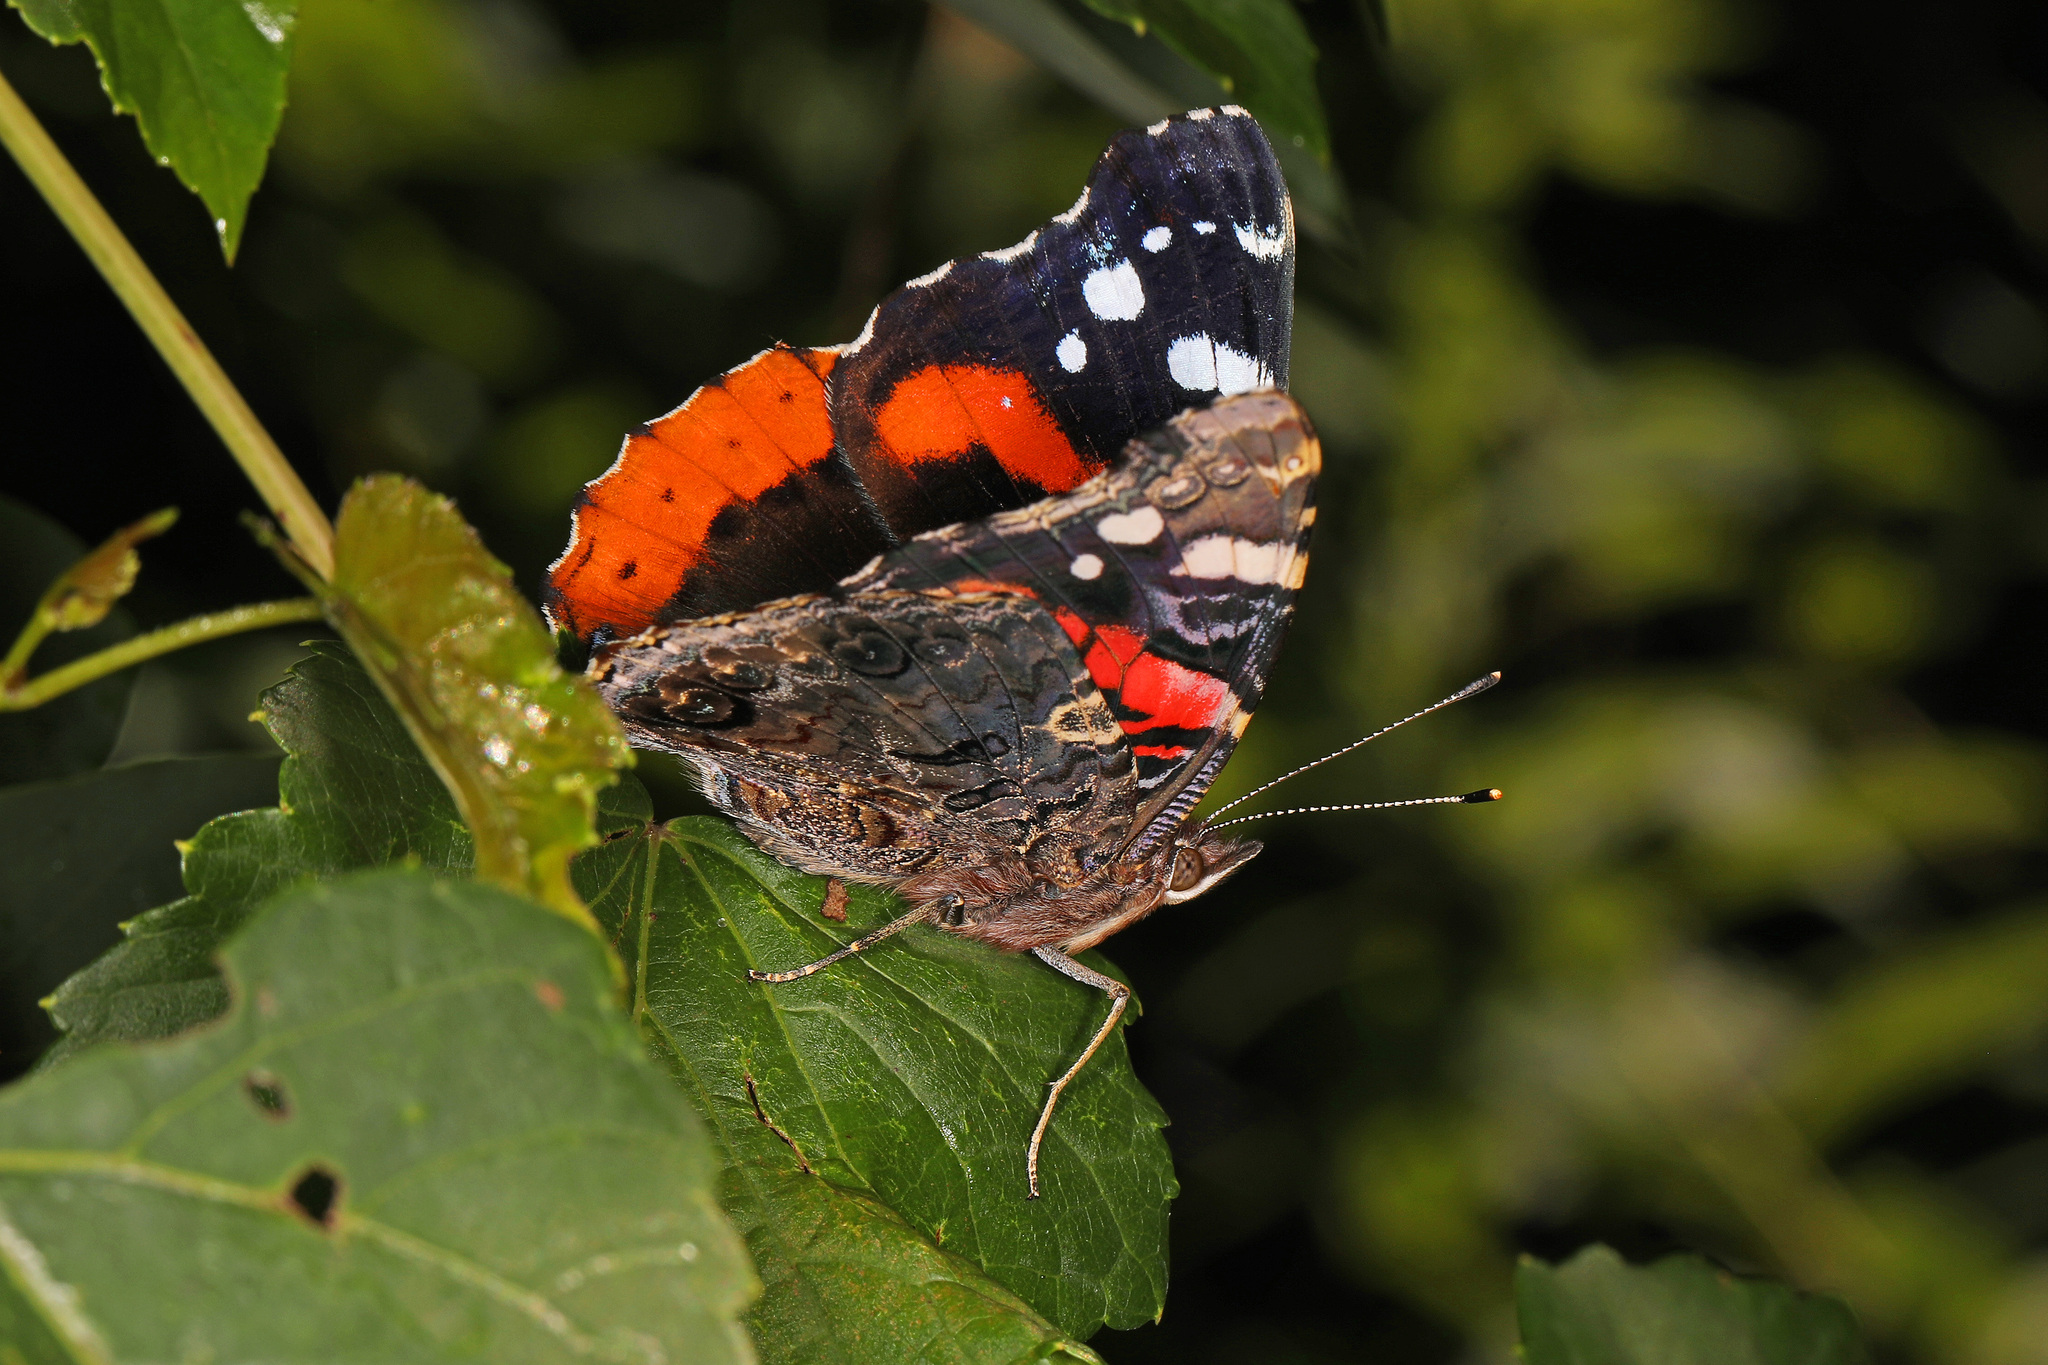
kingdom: Animalia
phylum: Arthropoda
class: Insecta
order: Lepidoptera
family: Nymphalidae
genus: Vanessa
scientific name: Vanessa atalanta
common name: Red admiral
